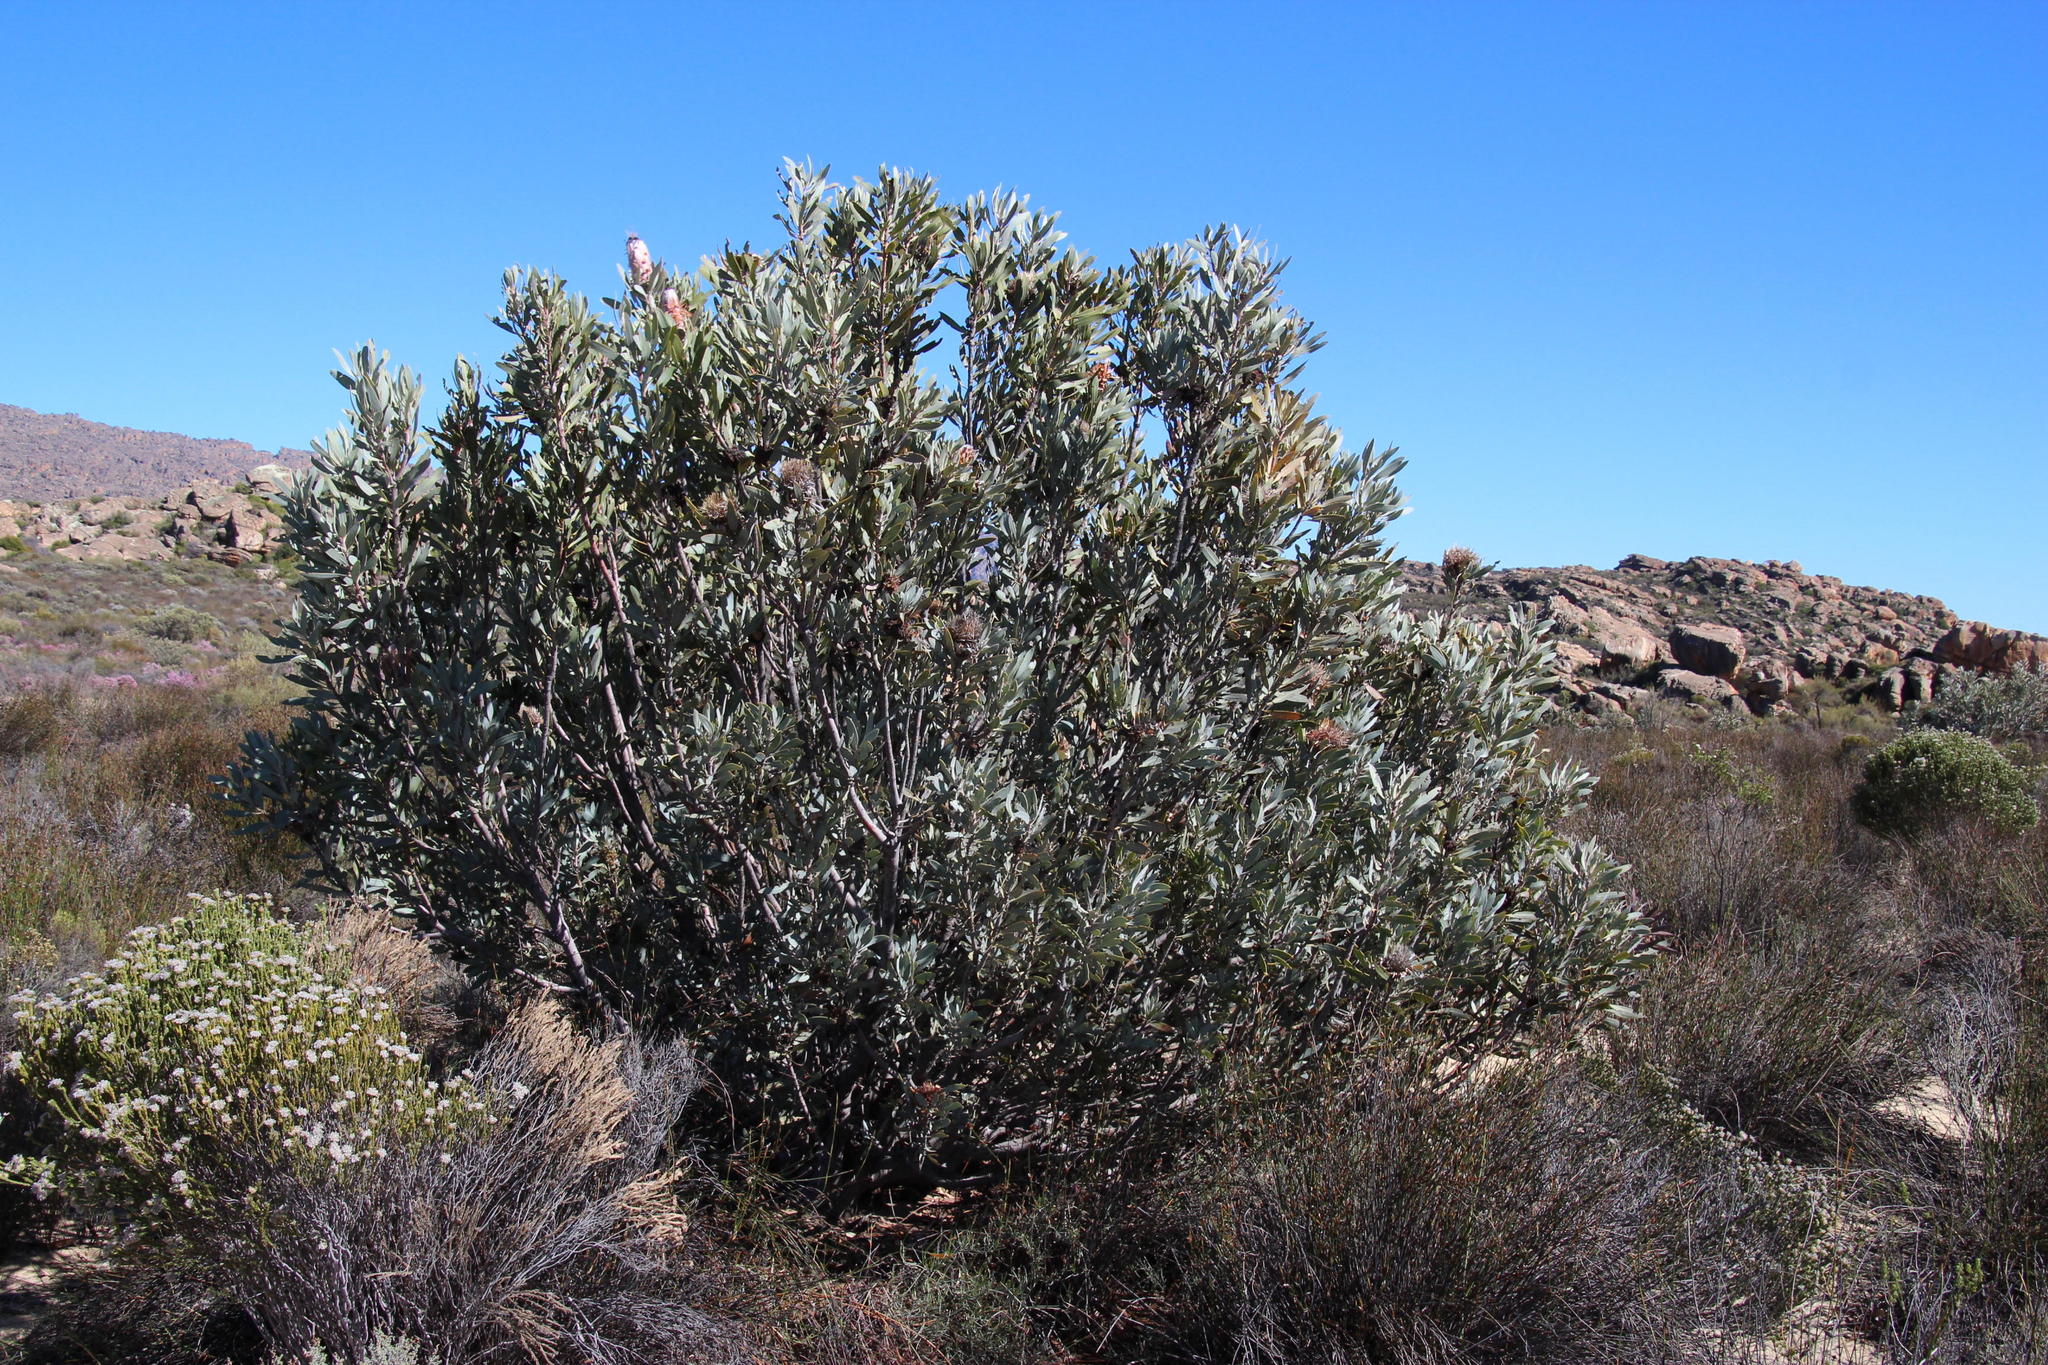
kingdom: Plantae
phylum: Tracheophyta
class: Magnoliopsida
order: Proteales
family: Proteaceae
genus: Protea
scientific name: Protea laurifolia
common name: Grey-leaf sugarbsh
